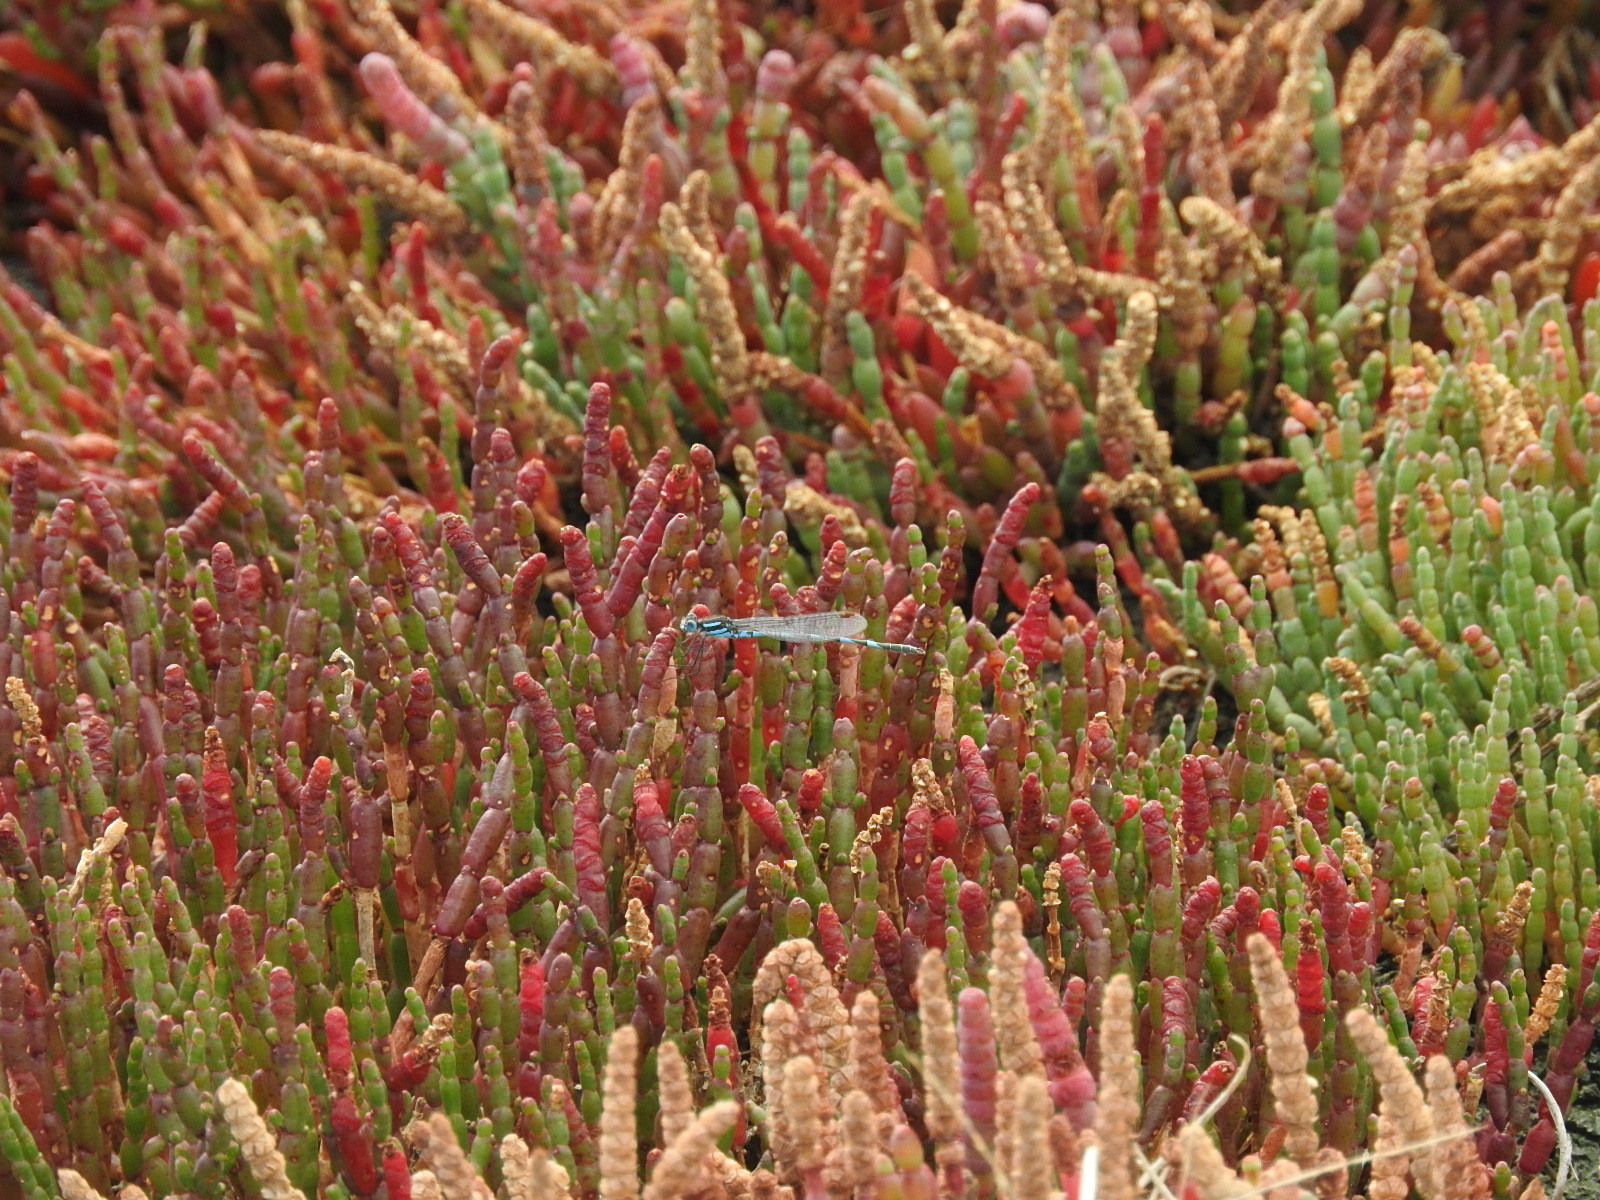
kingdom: Animalia
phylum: Arthropoda
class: Insecta
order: Odonata
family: Lestidae
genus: Austrolestes
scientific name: Austrolestes annulosus
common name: Blue ringtail
